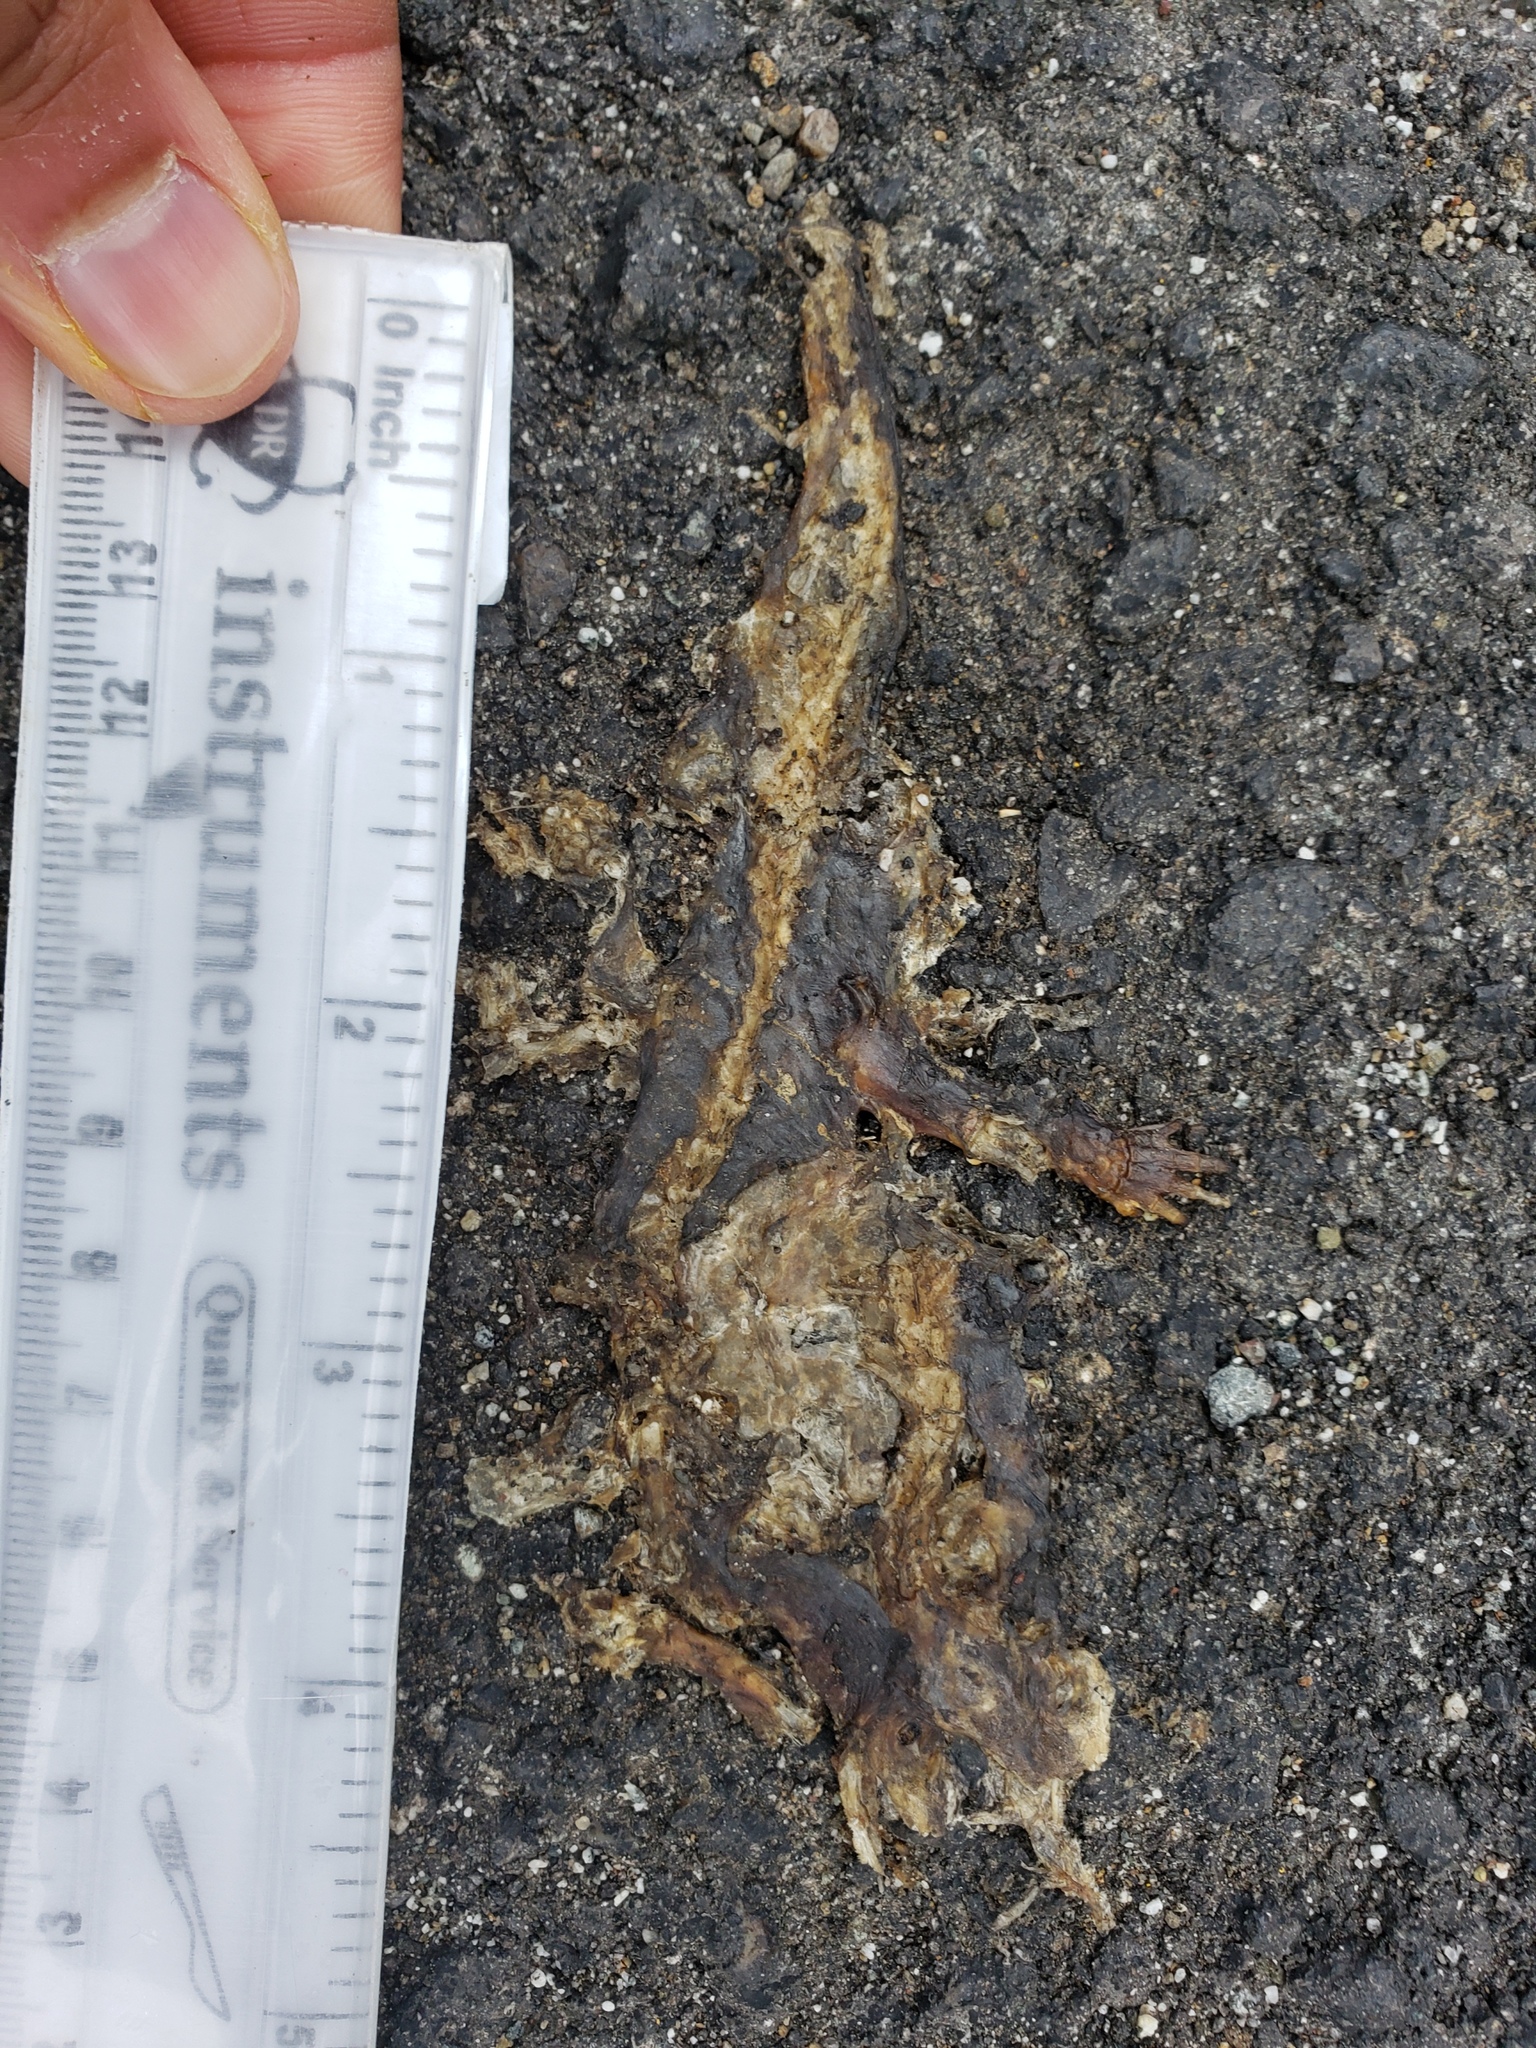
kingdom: Animalia
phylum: Chordata
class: Amphibia
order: Caudata
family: Salamandridae
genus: Taricha
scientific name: Taricha
